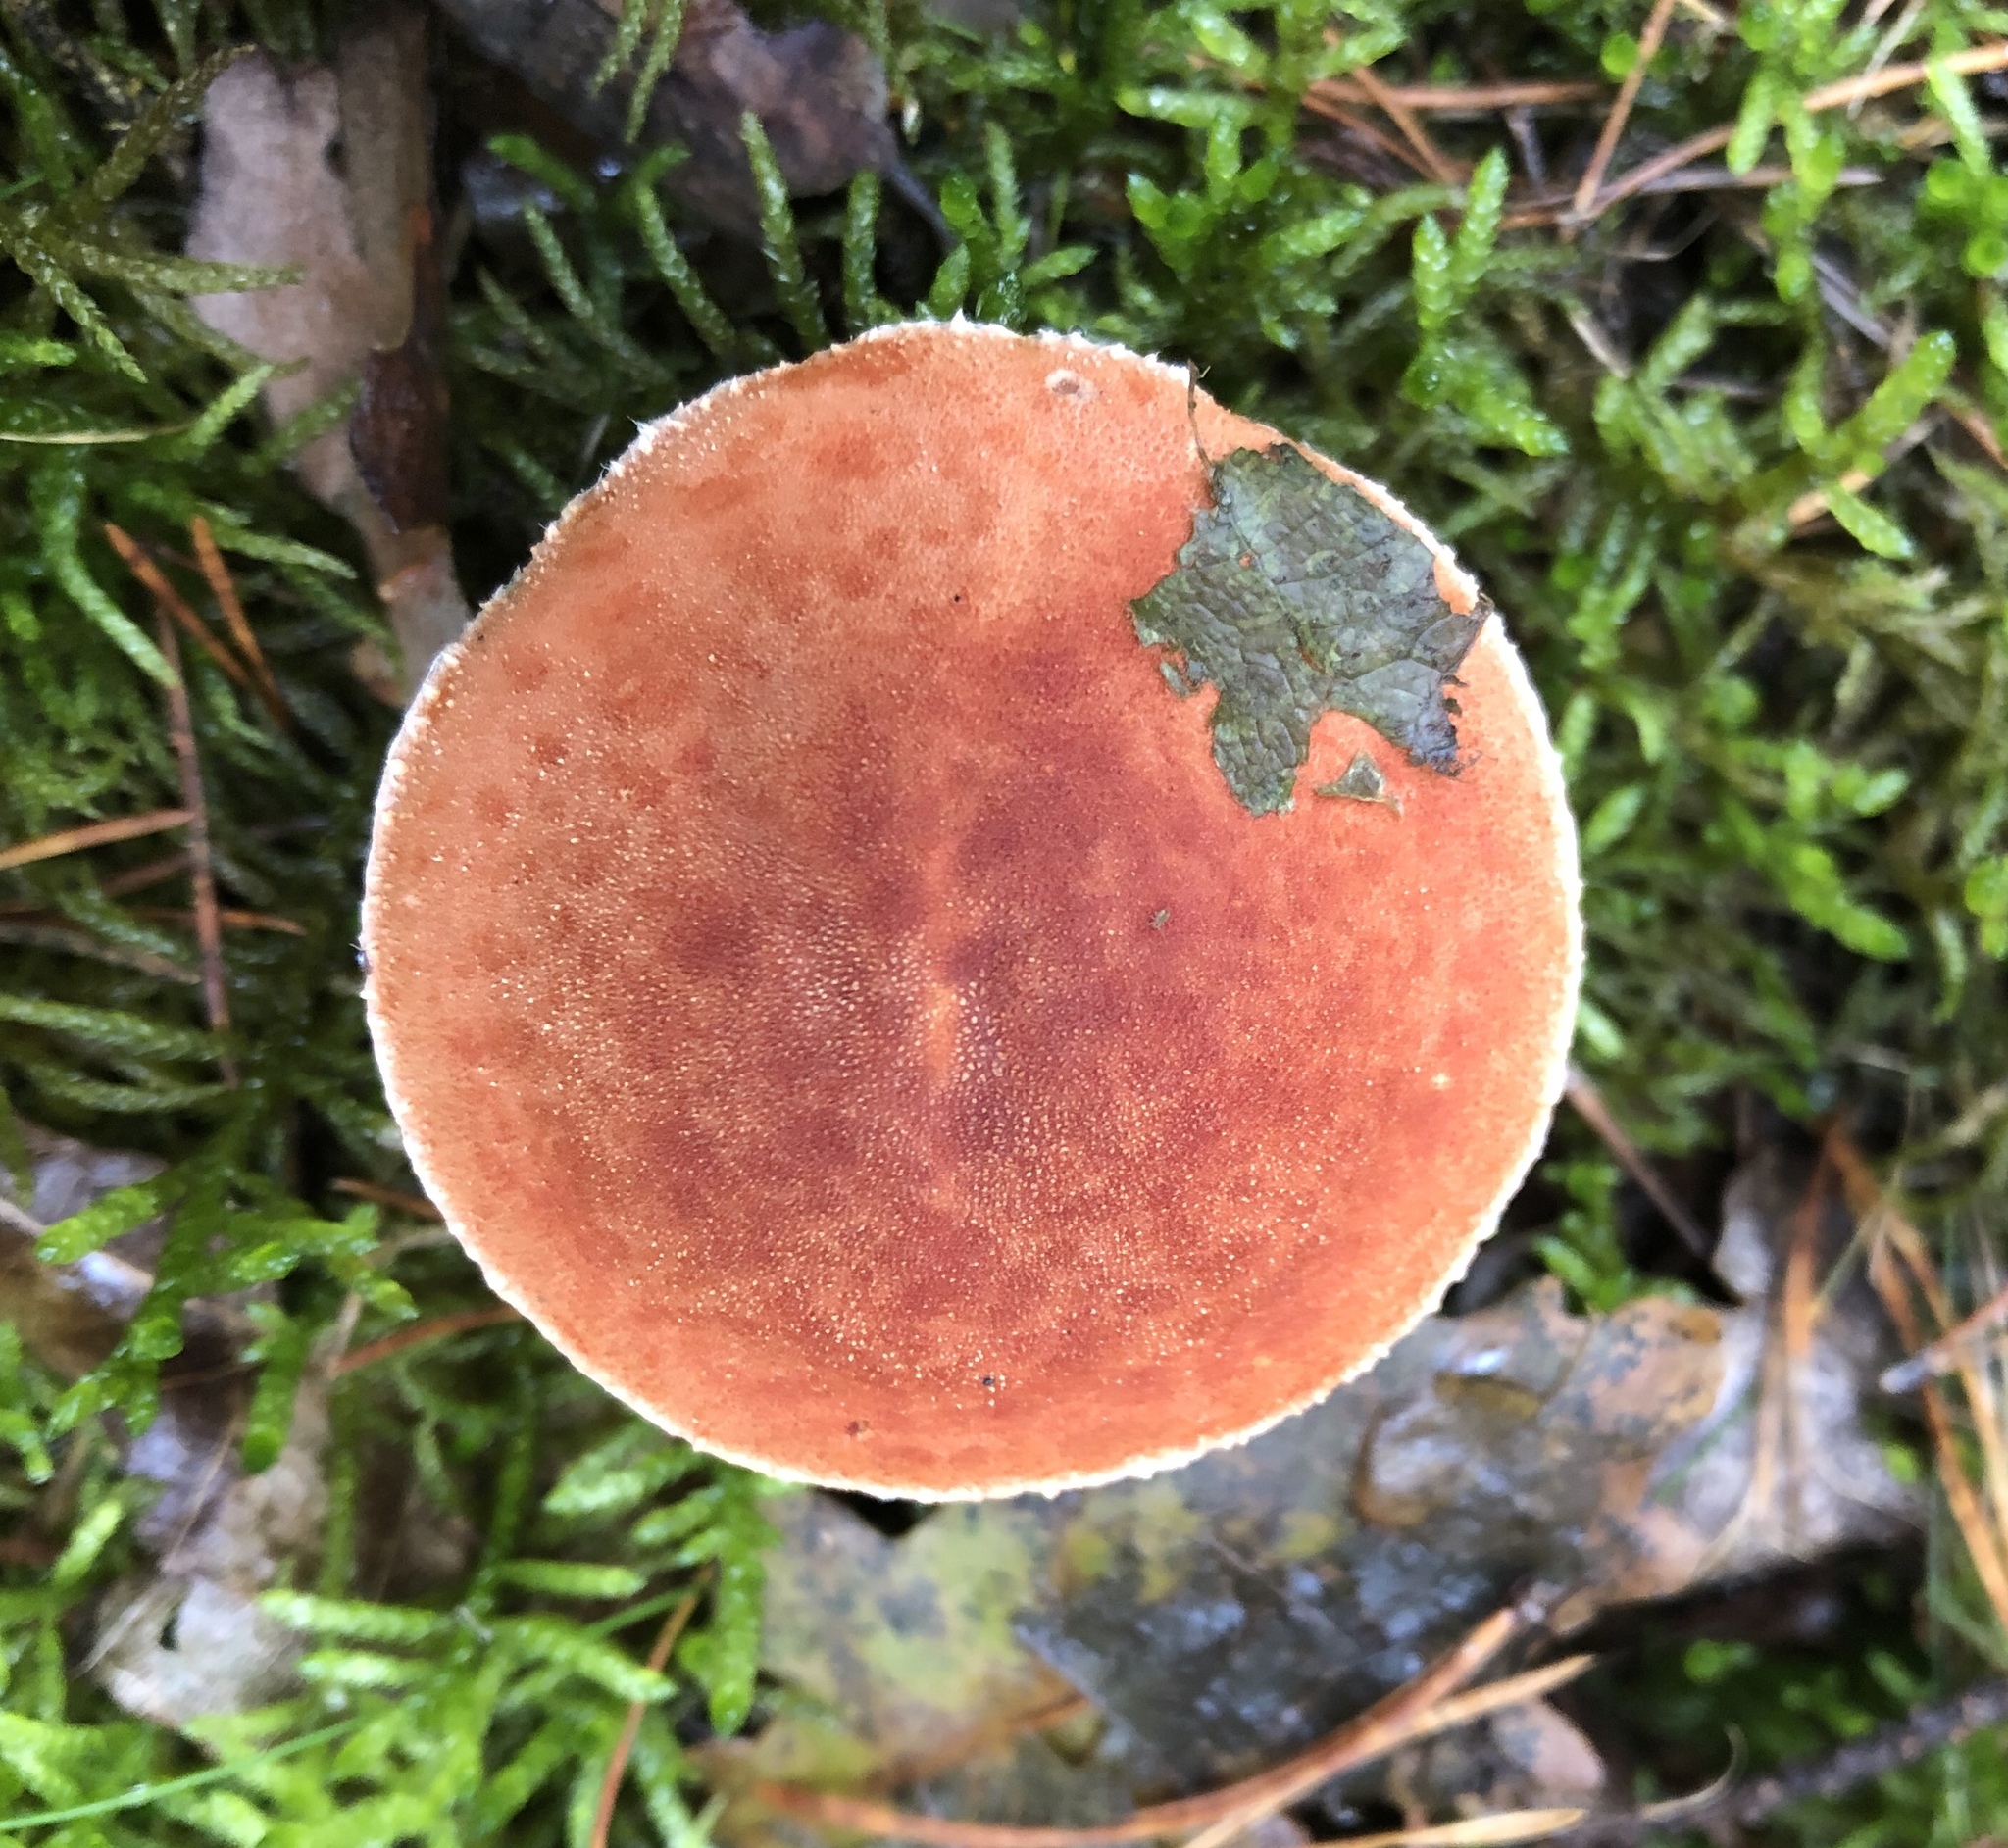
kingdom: Fungi
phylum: Basidiomycota
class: Agaricomycetes
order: Agaricales
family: Agaricaceae
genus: Cystodermella
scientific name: Cystodermella cinnabarina
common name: Cinnabar powdercap
